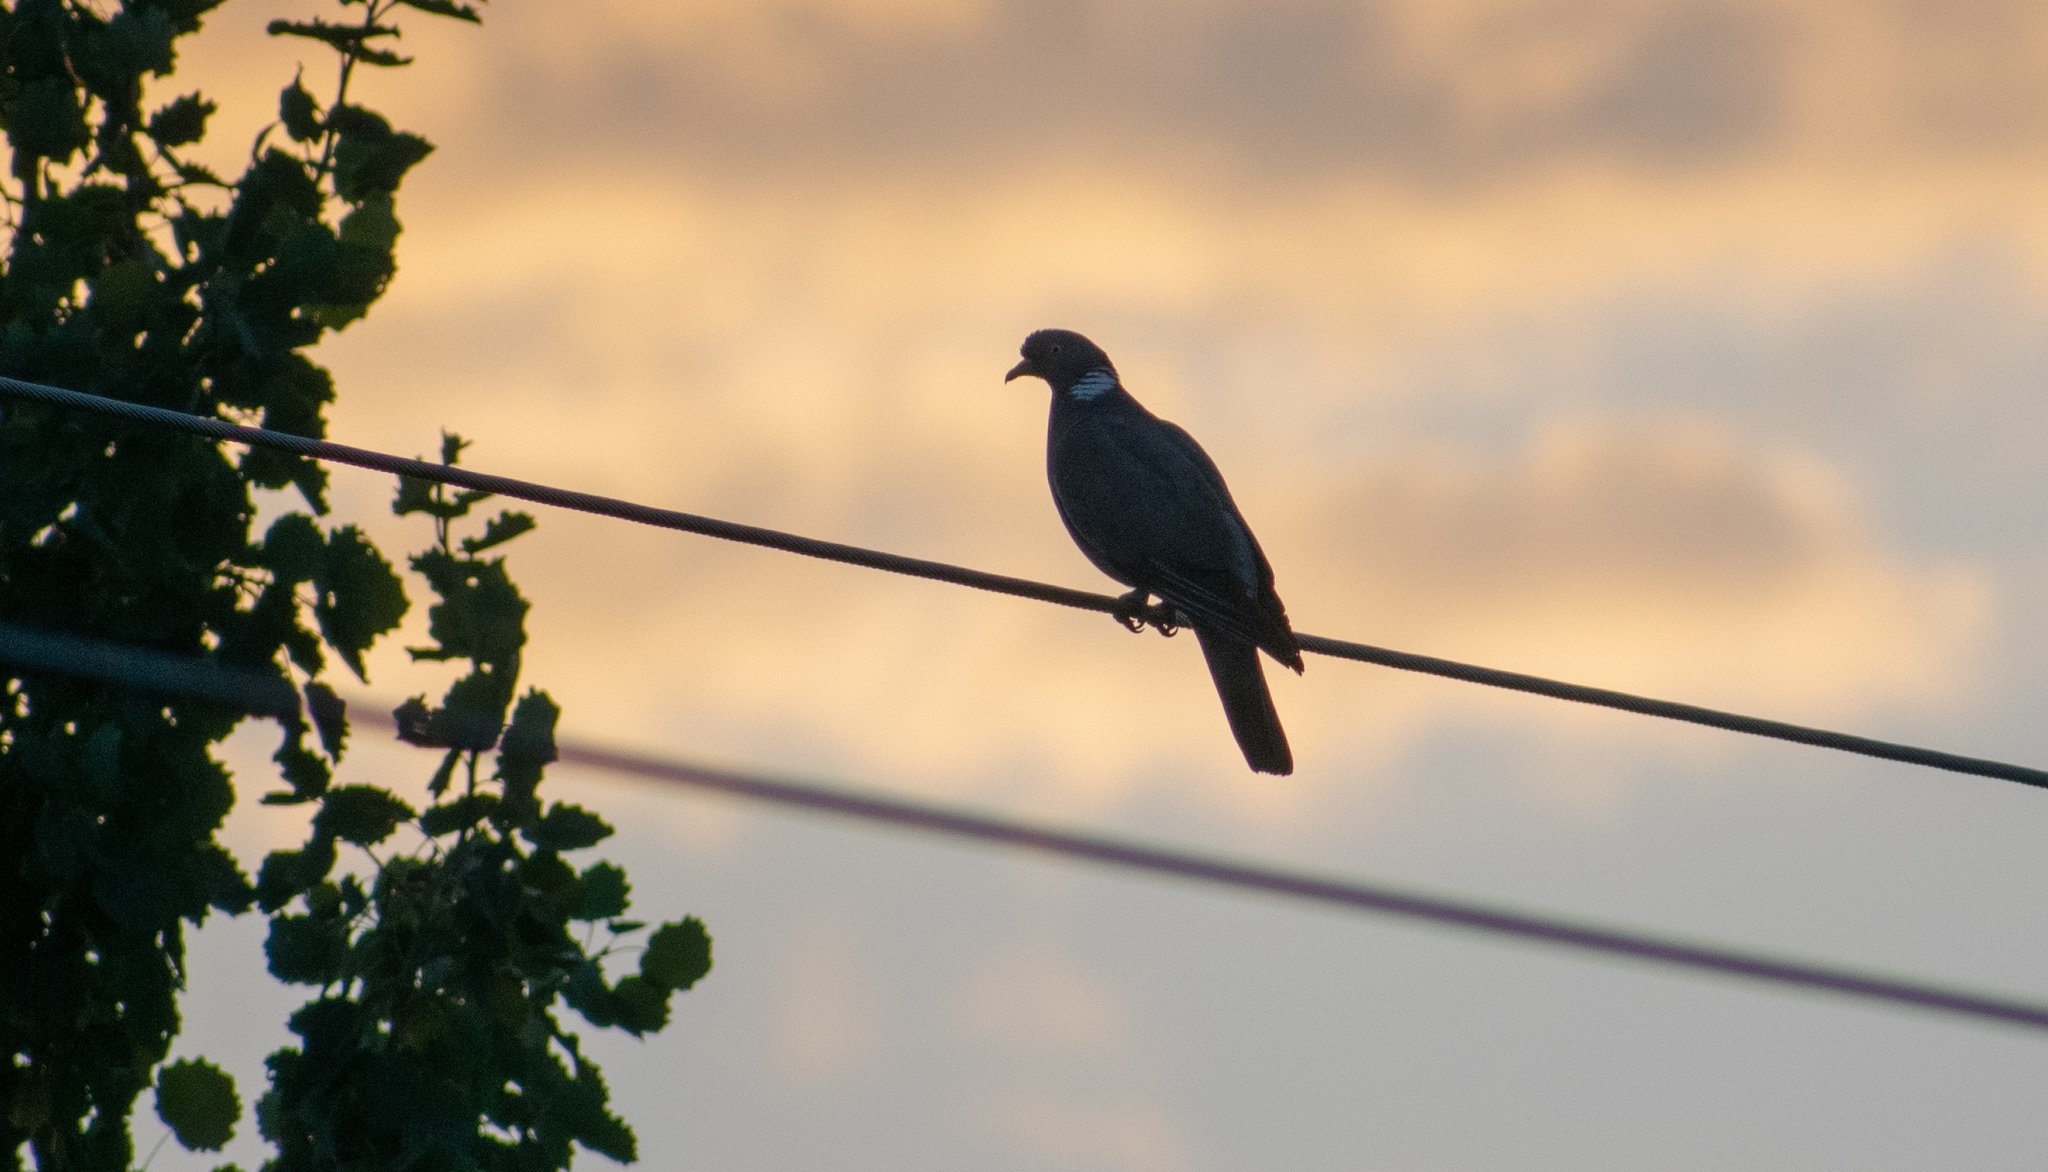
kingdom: Animalia
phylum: Chordata
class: Aves
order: Columbiformes
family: Columbidae
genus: Columba
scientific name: Columba palumbus
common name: Common wood pigeon
